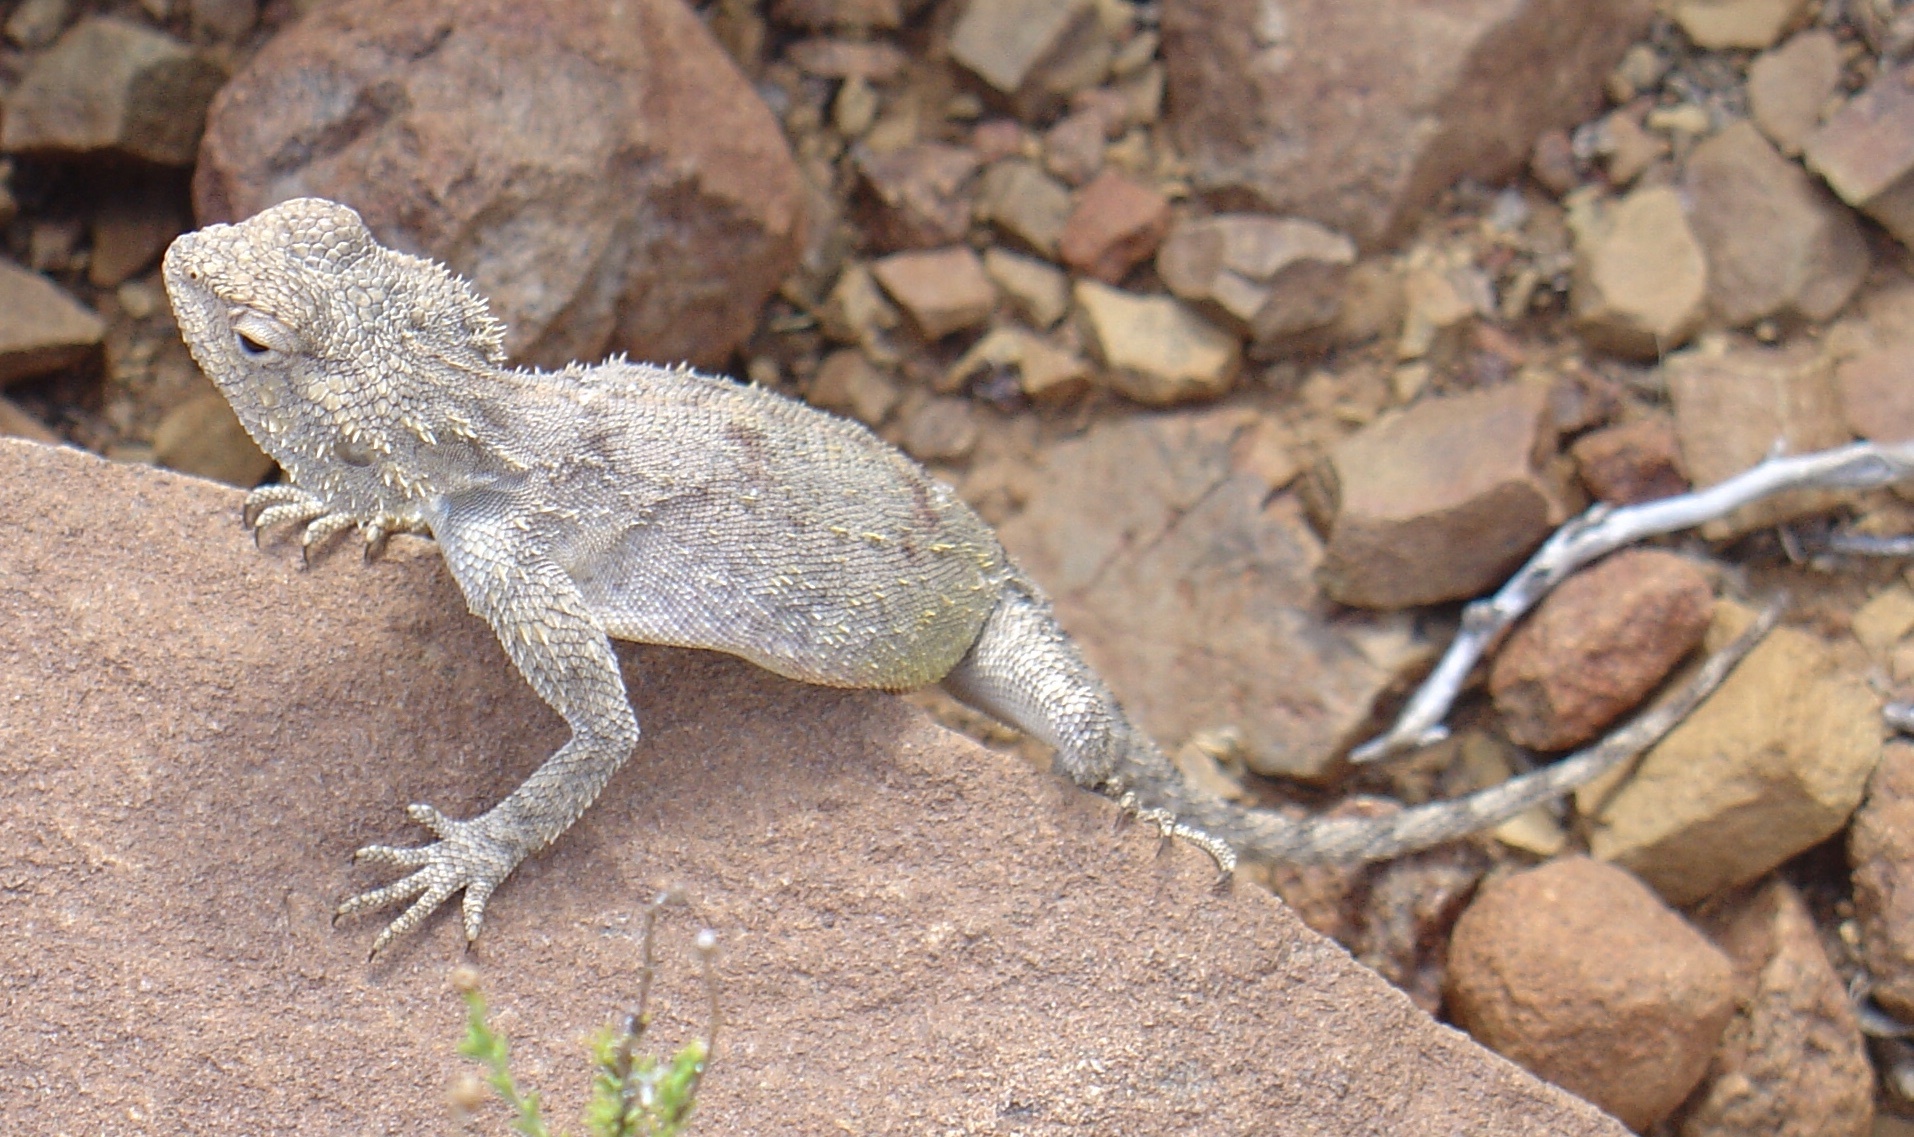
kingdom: Animalia
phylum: Chordata
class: Squamata
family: Agamidae
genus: Agama
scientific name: Agama atra
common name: Southern african rock agama
